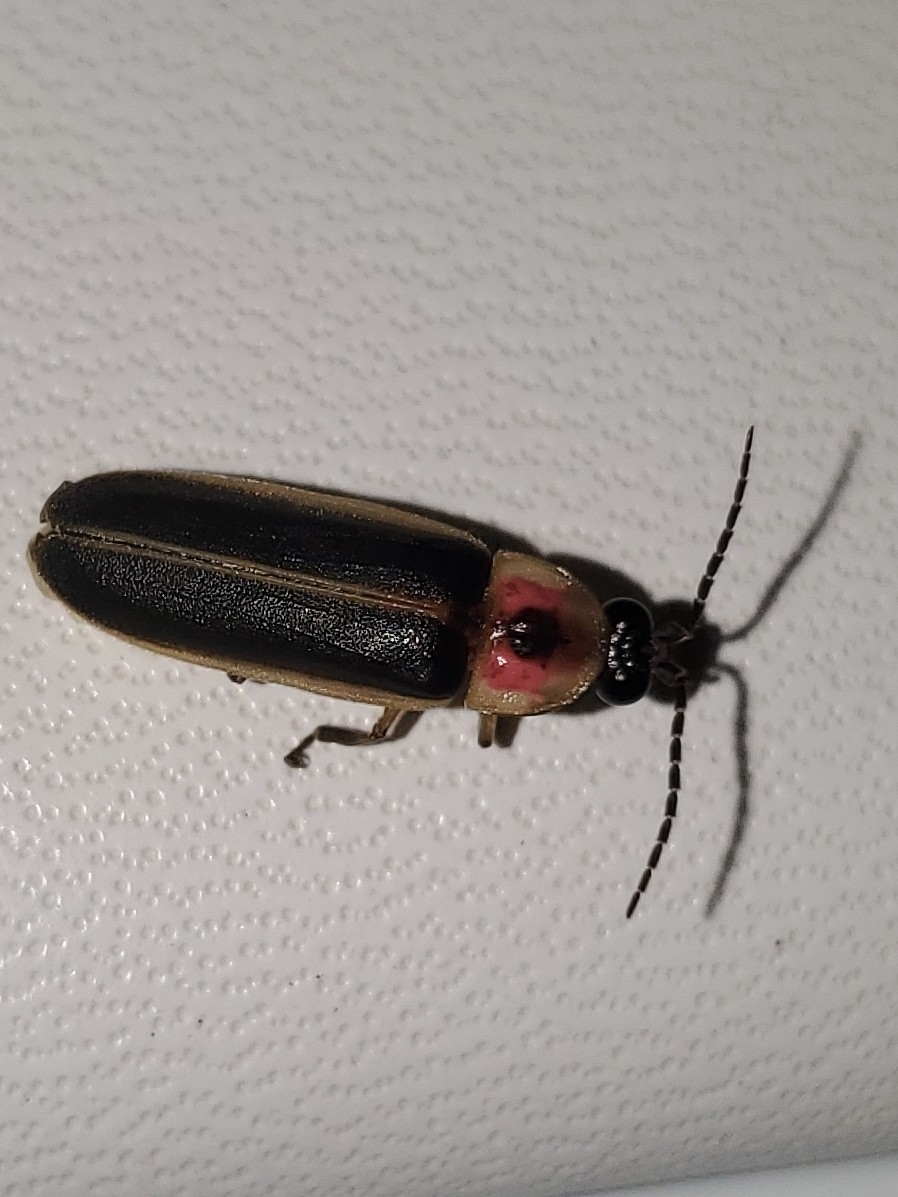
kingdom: Animalia
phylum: Arthropoda
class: Insecta
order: Coleoptera
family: Lampyridae
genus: Photinus
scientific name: Photinus pyralis
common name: Big dipper firefly
